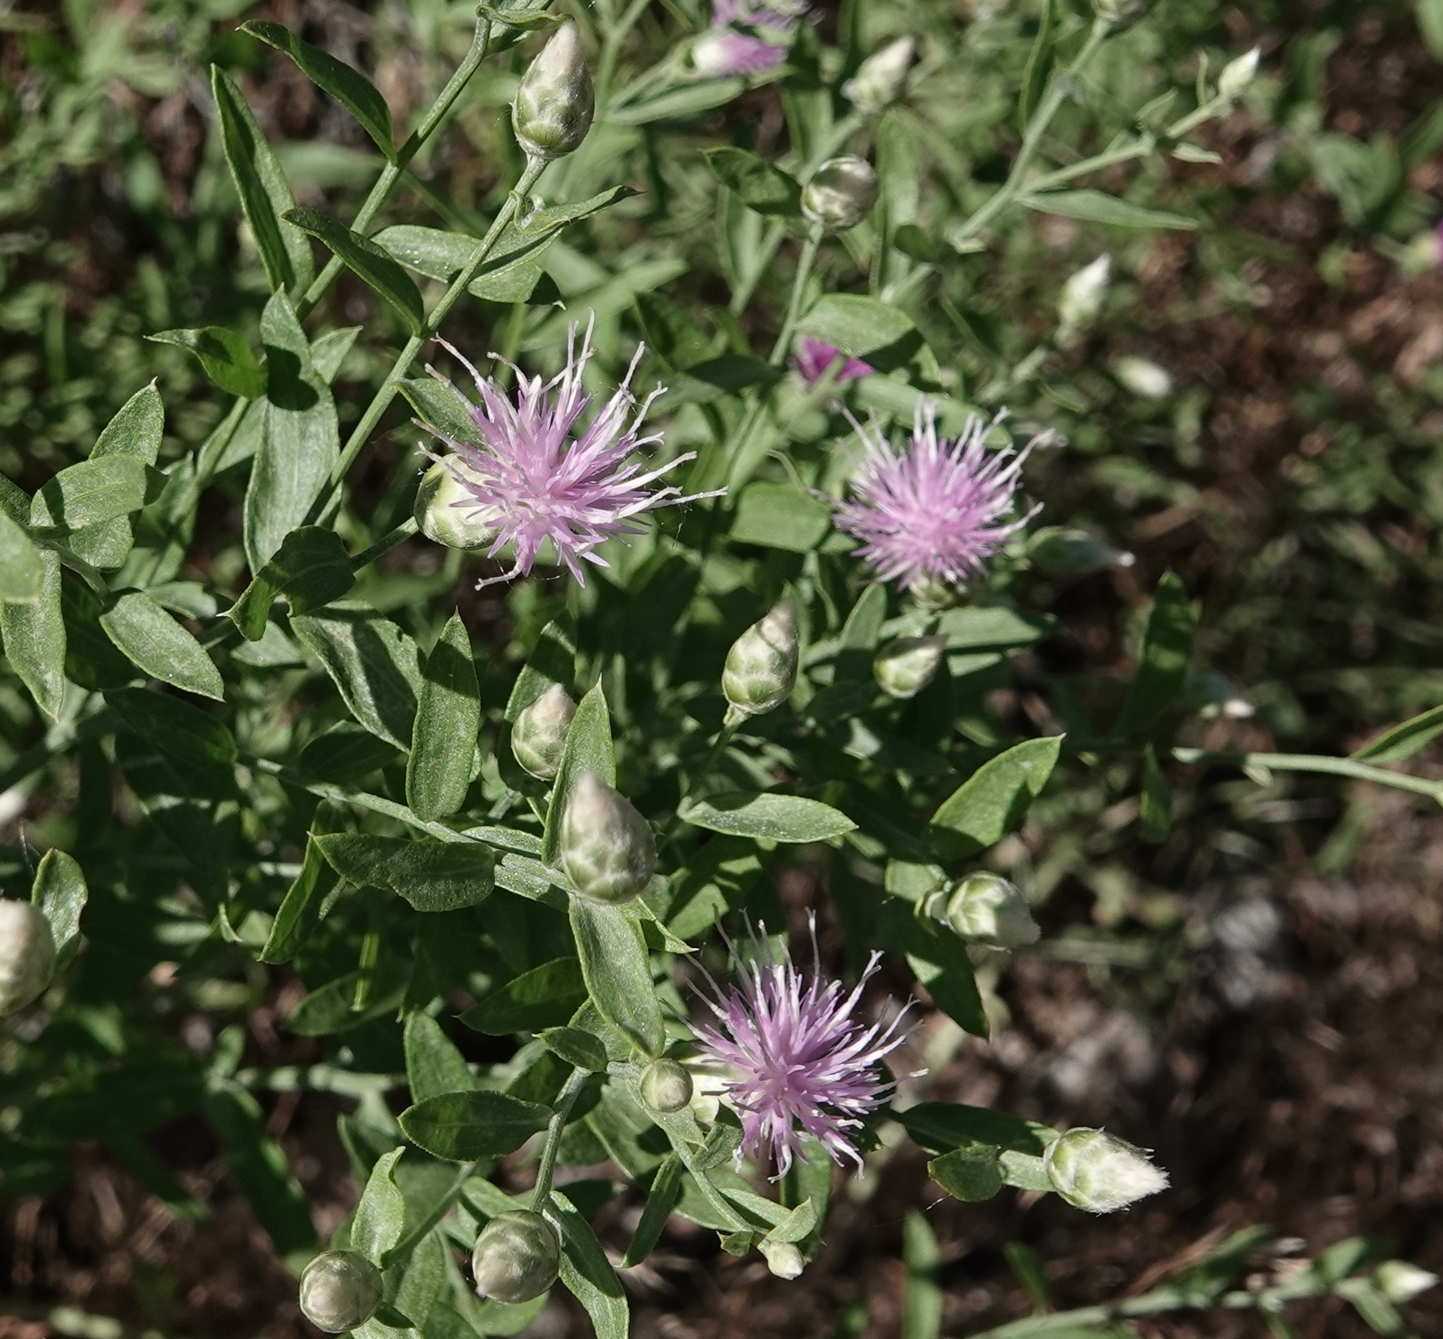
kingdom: Plantae
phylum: Tracheophyta
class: Magnoliopsida
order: Asterales
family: Asteraceae
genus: Leuzea
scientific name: Leuzea repens
